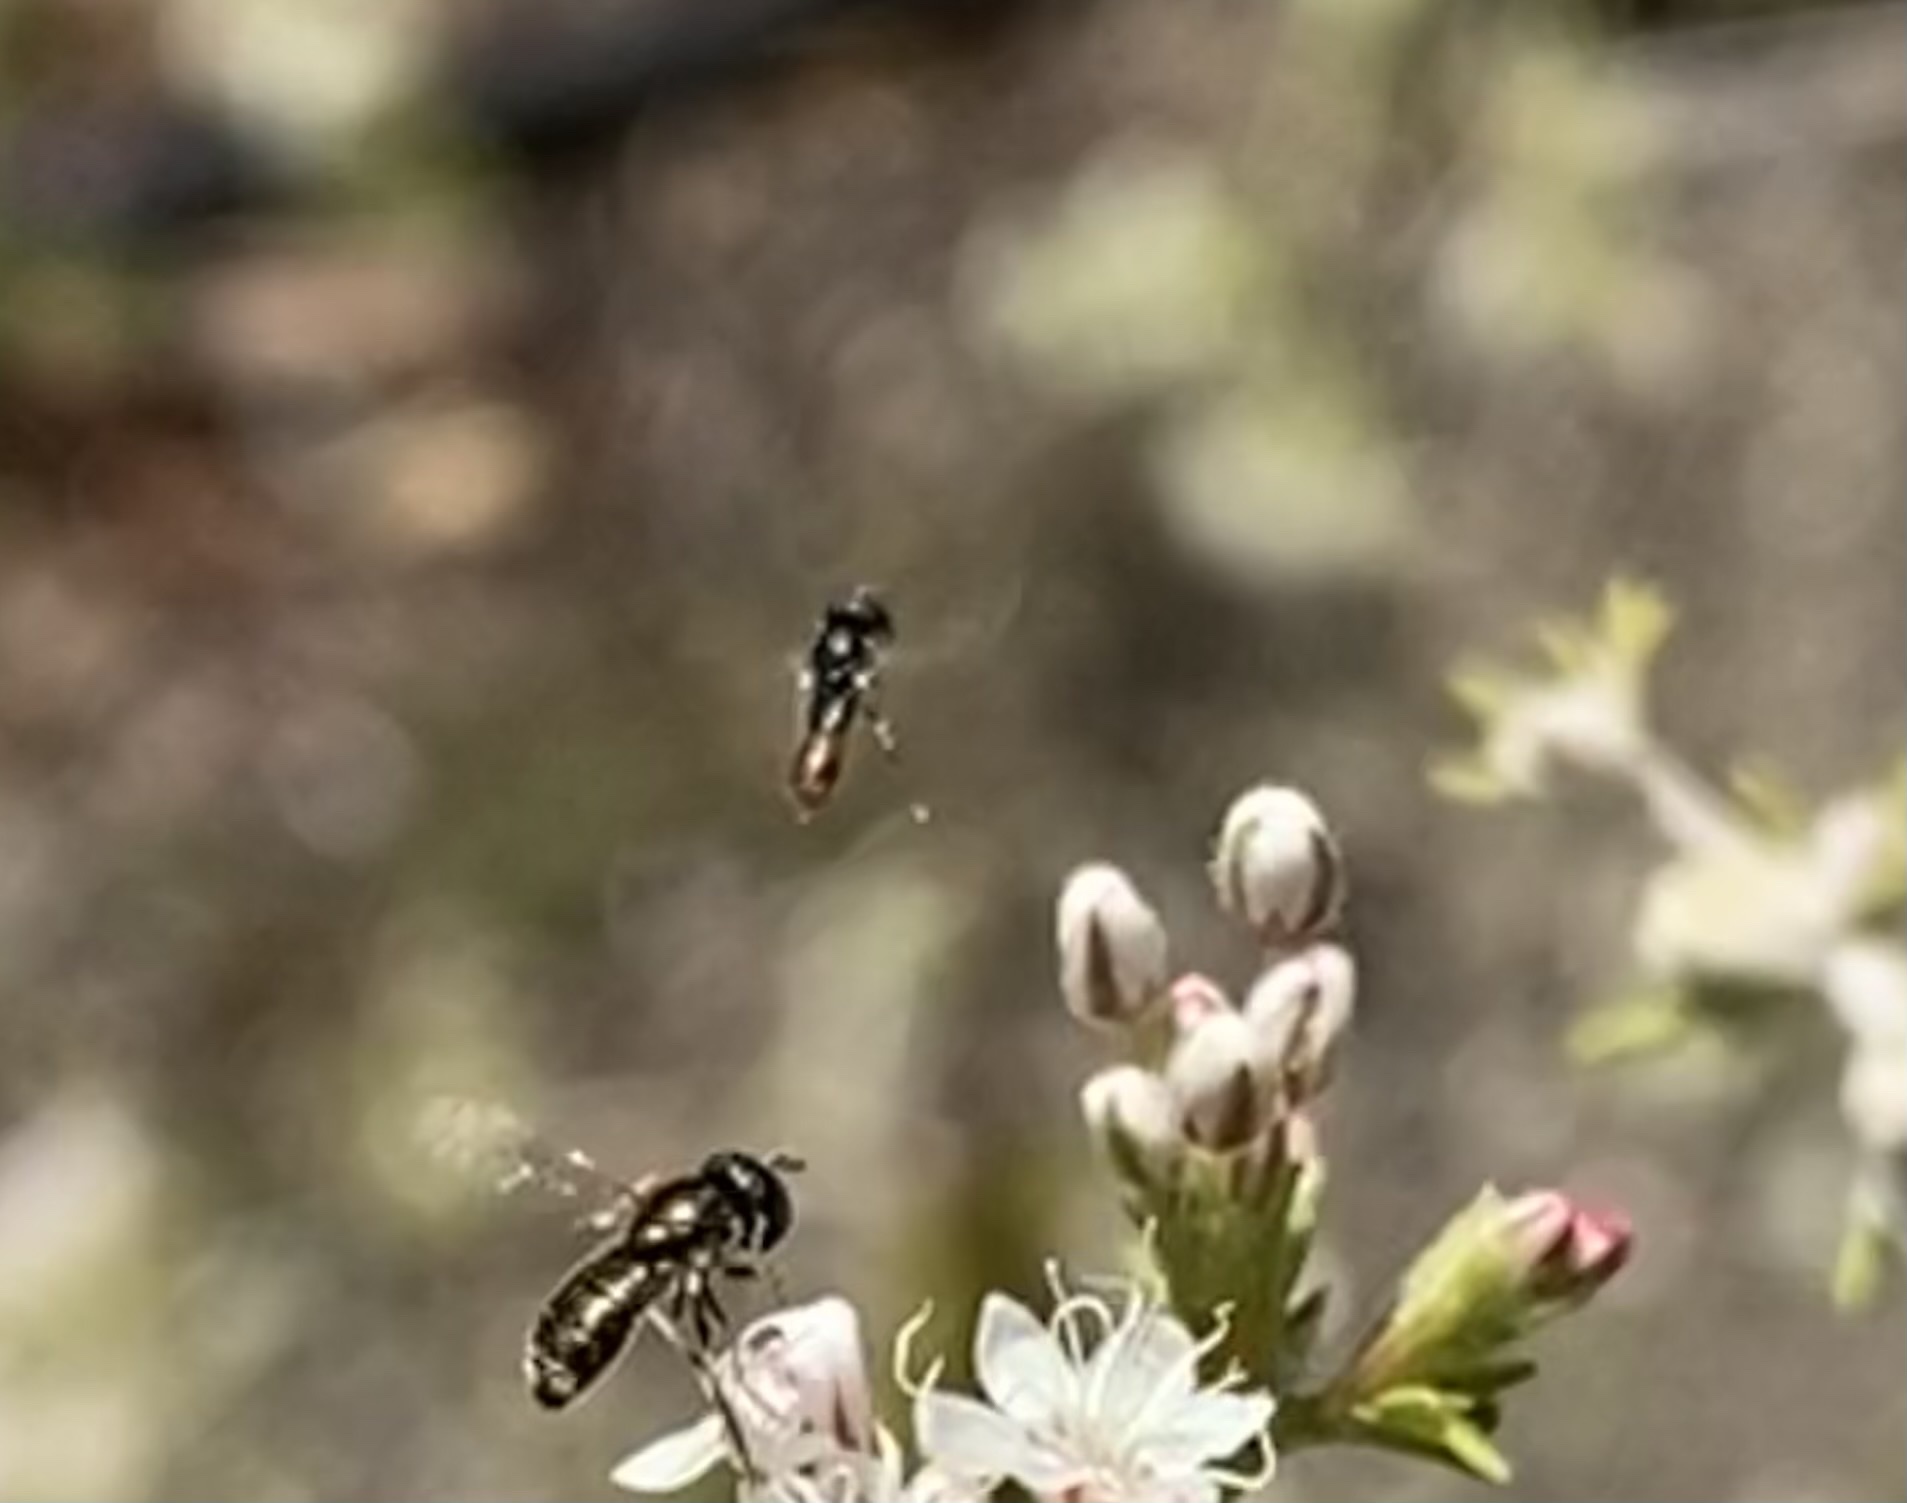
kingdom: Animalia
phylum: Arthropoda
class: Insecta
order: Diptera
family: Syrphidae
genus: Paragus
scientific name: Paragus haemorrhous
